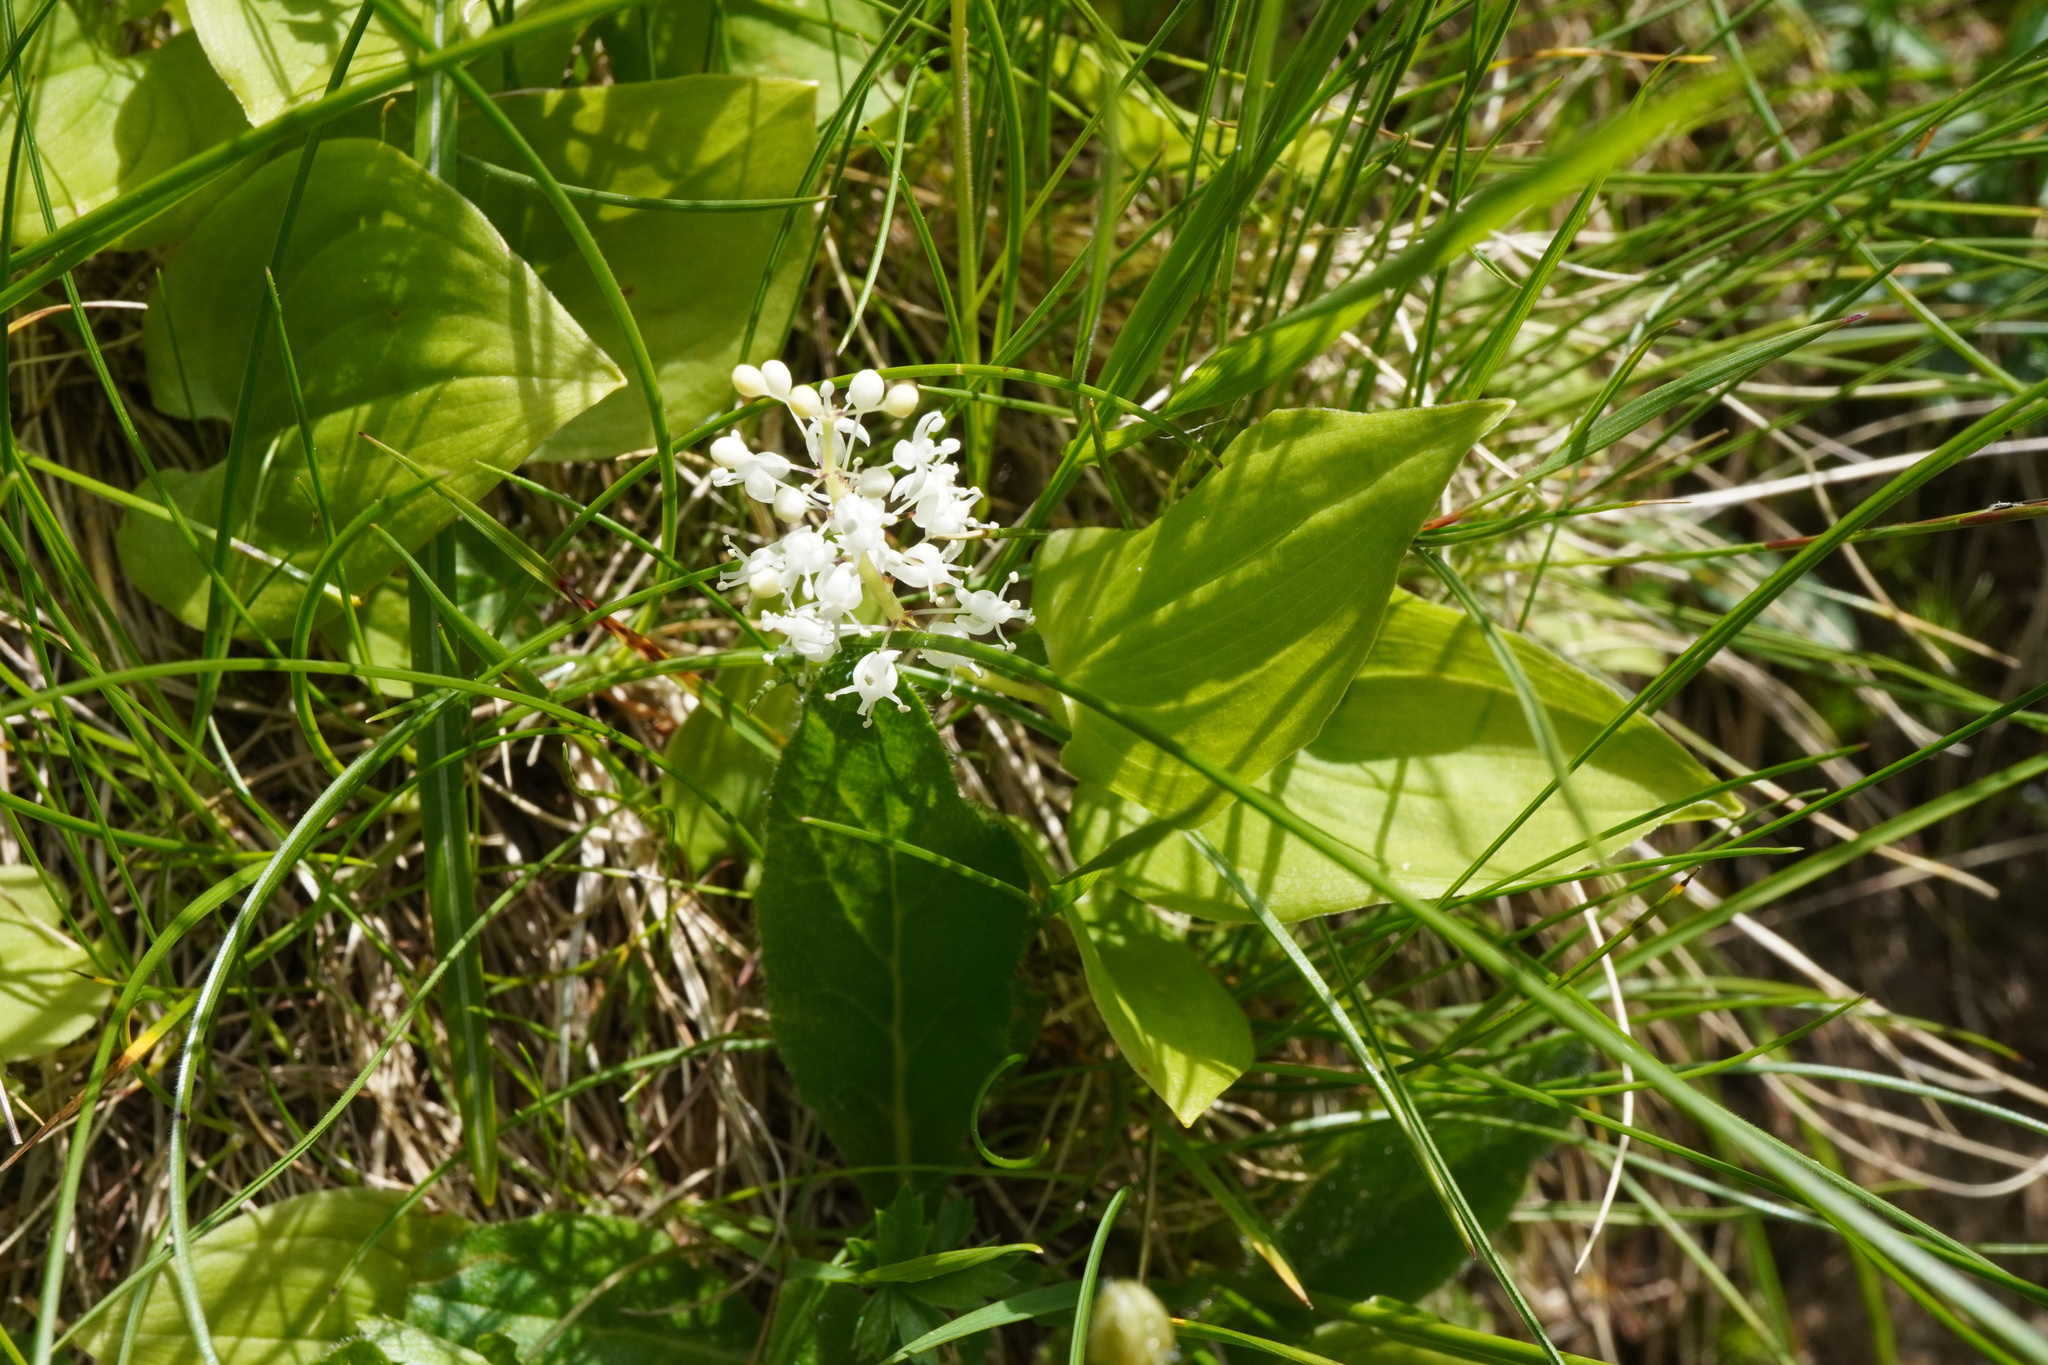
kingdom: Plantae
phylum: Tracheophyta
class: Liliopsida
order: Asparagales
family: Asparagaceae
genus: Maianthemum
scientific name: Maianthemum bifolium
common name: May lily
